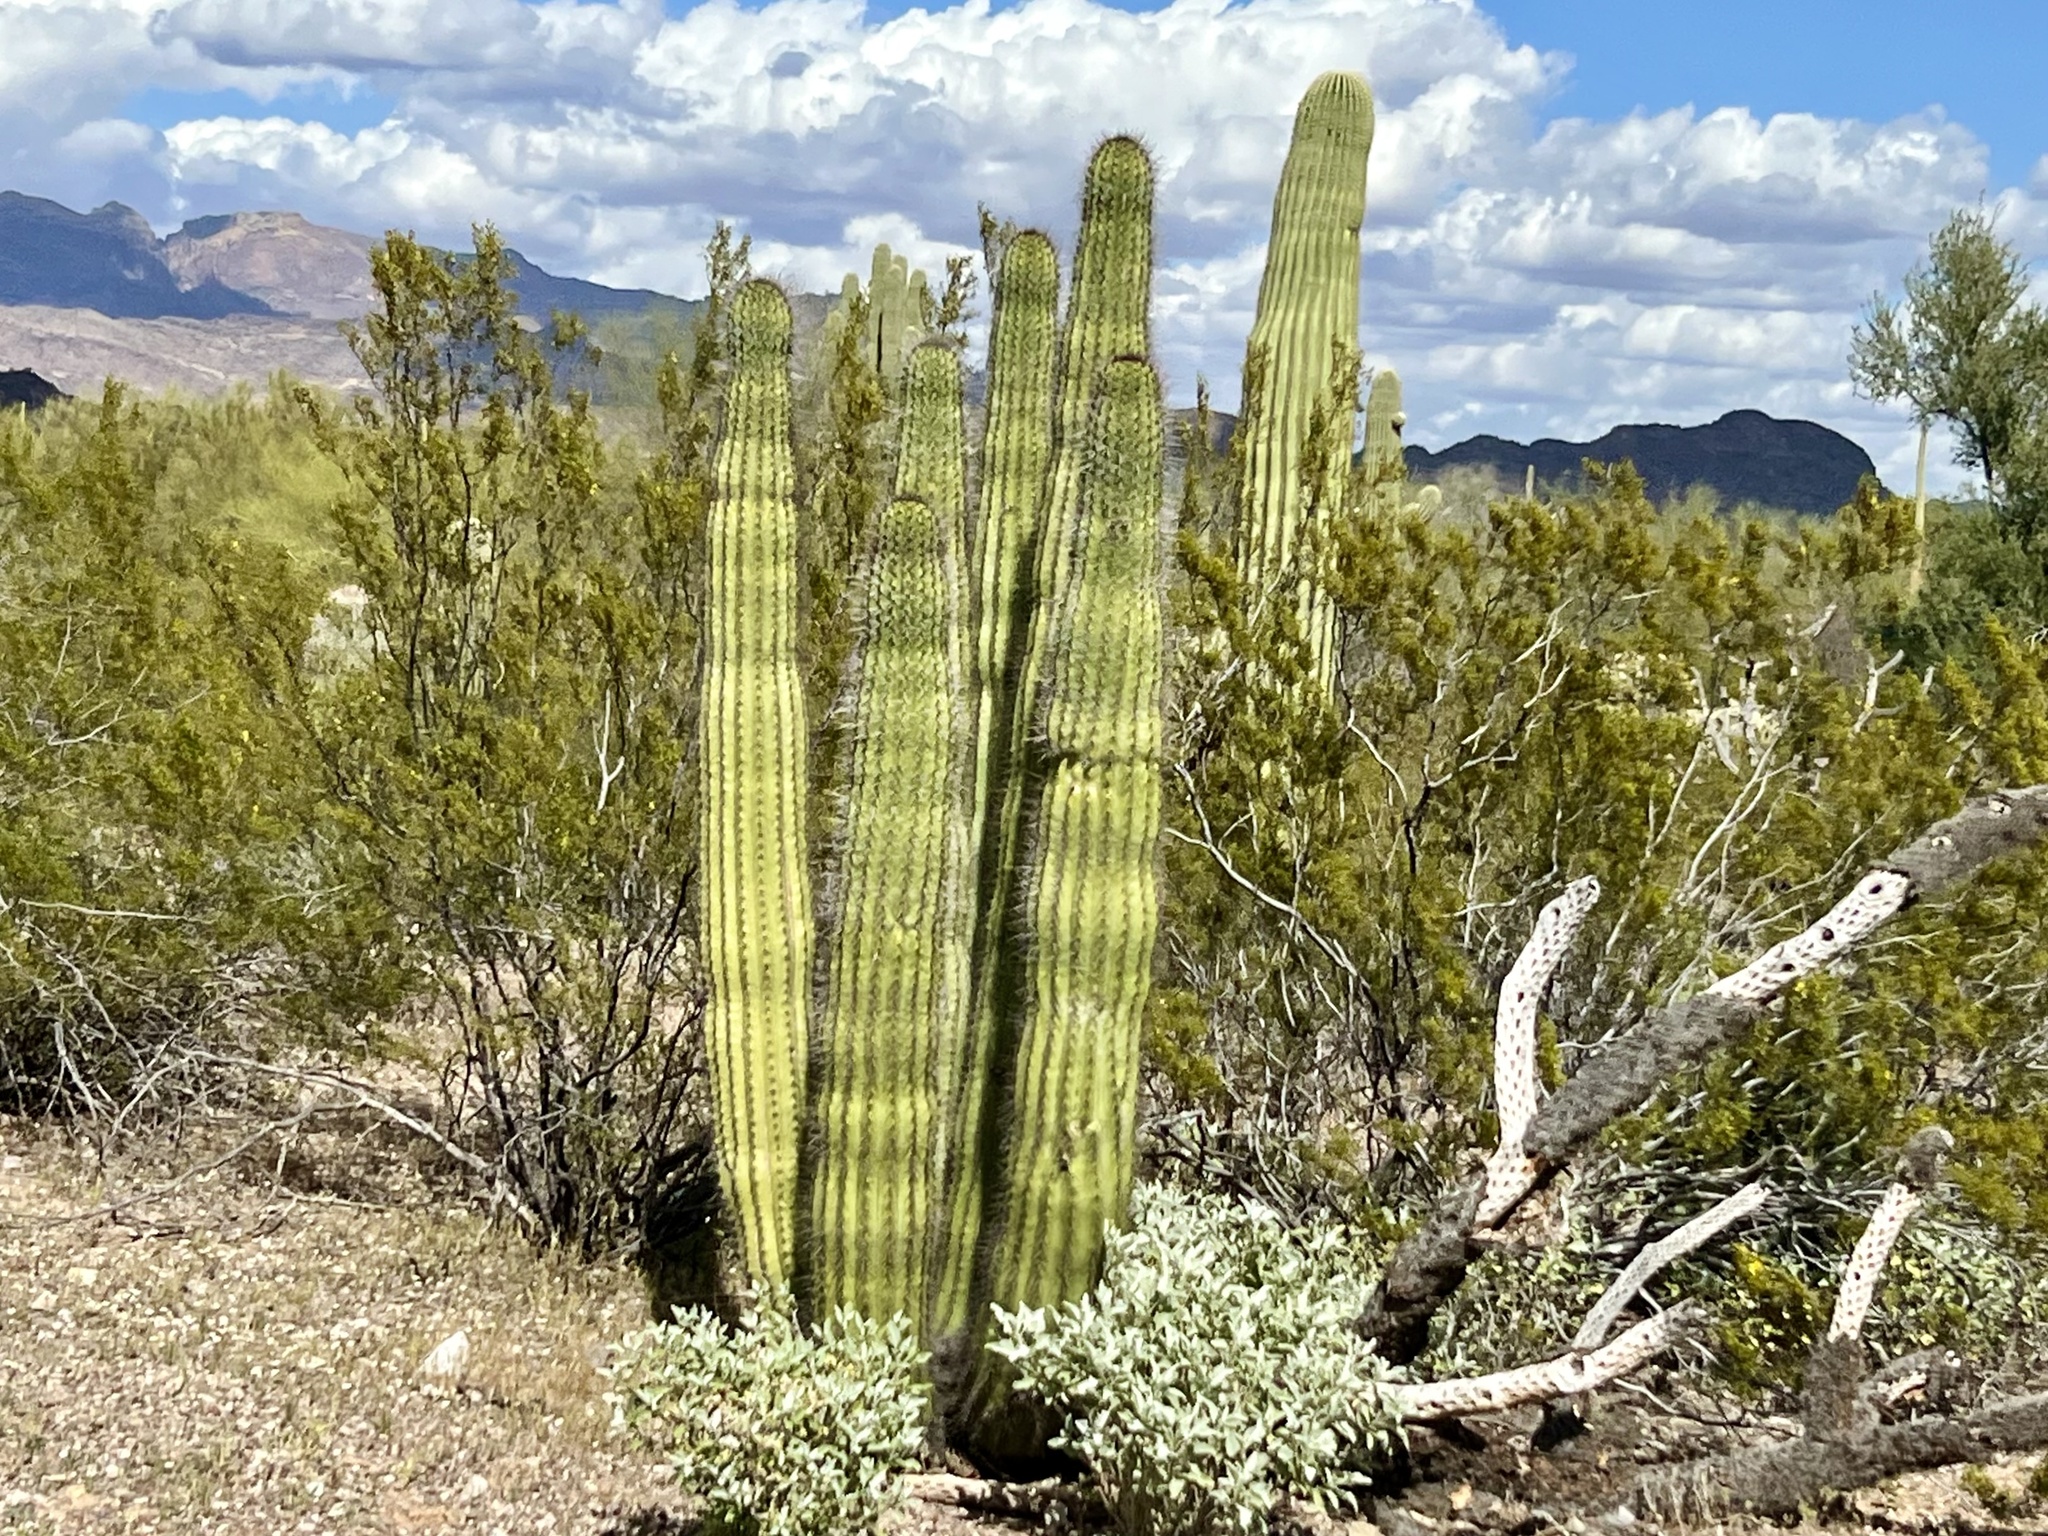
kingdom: Plantae
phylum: Tracheophyta
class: Magnoliopsida
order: Caryophyllales
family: Cactaceae
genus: Stenocereus
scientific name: Stenocereus thurberi
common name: Organ pipe cactus
